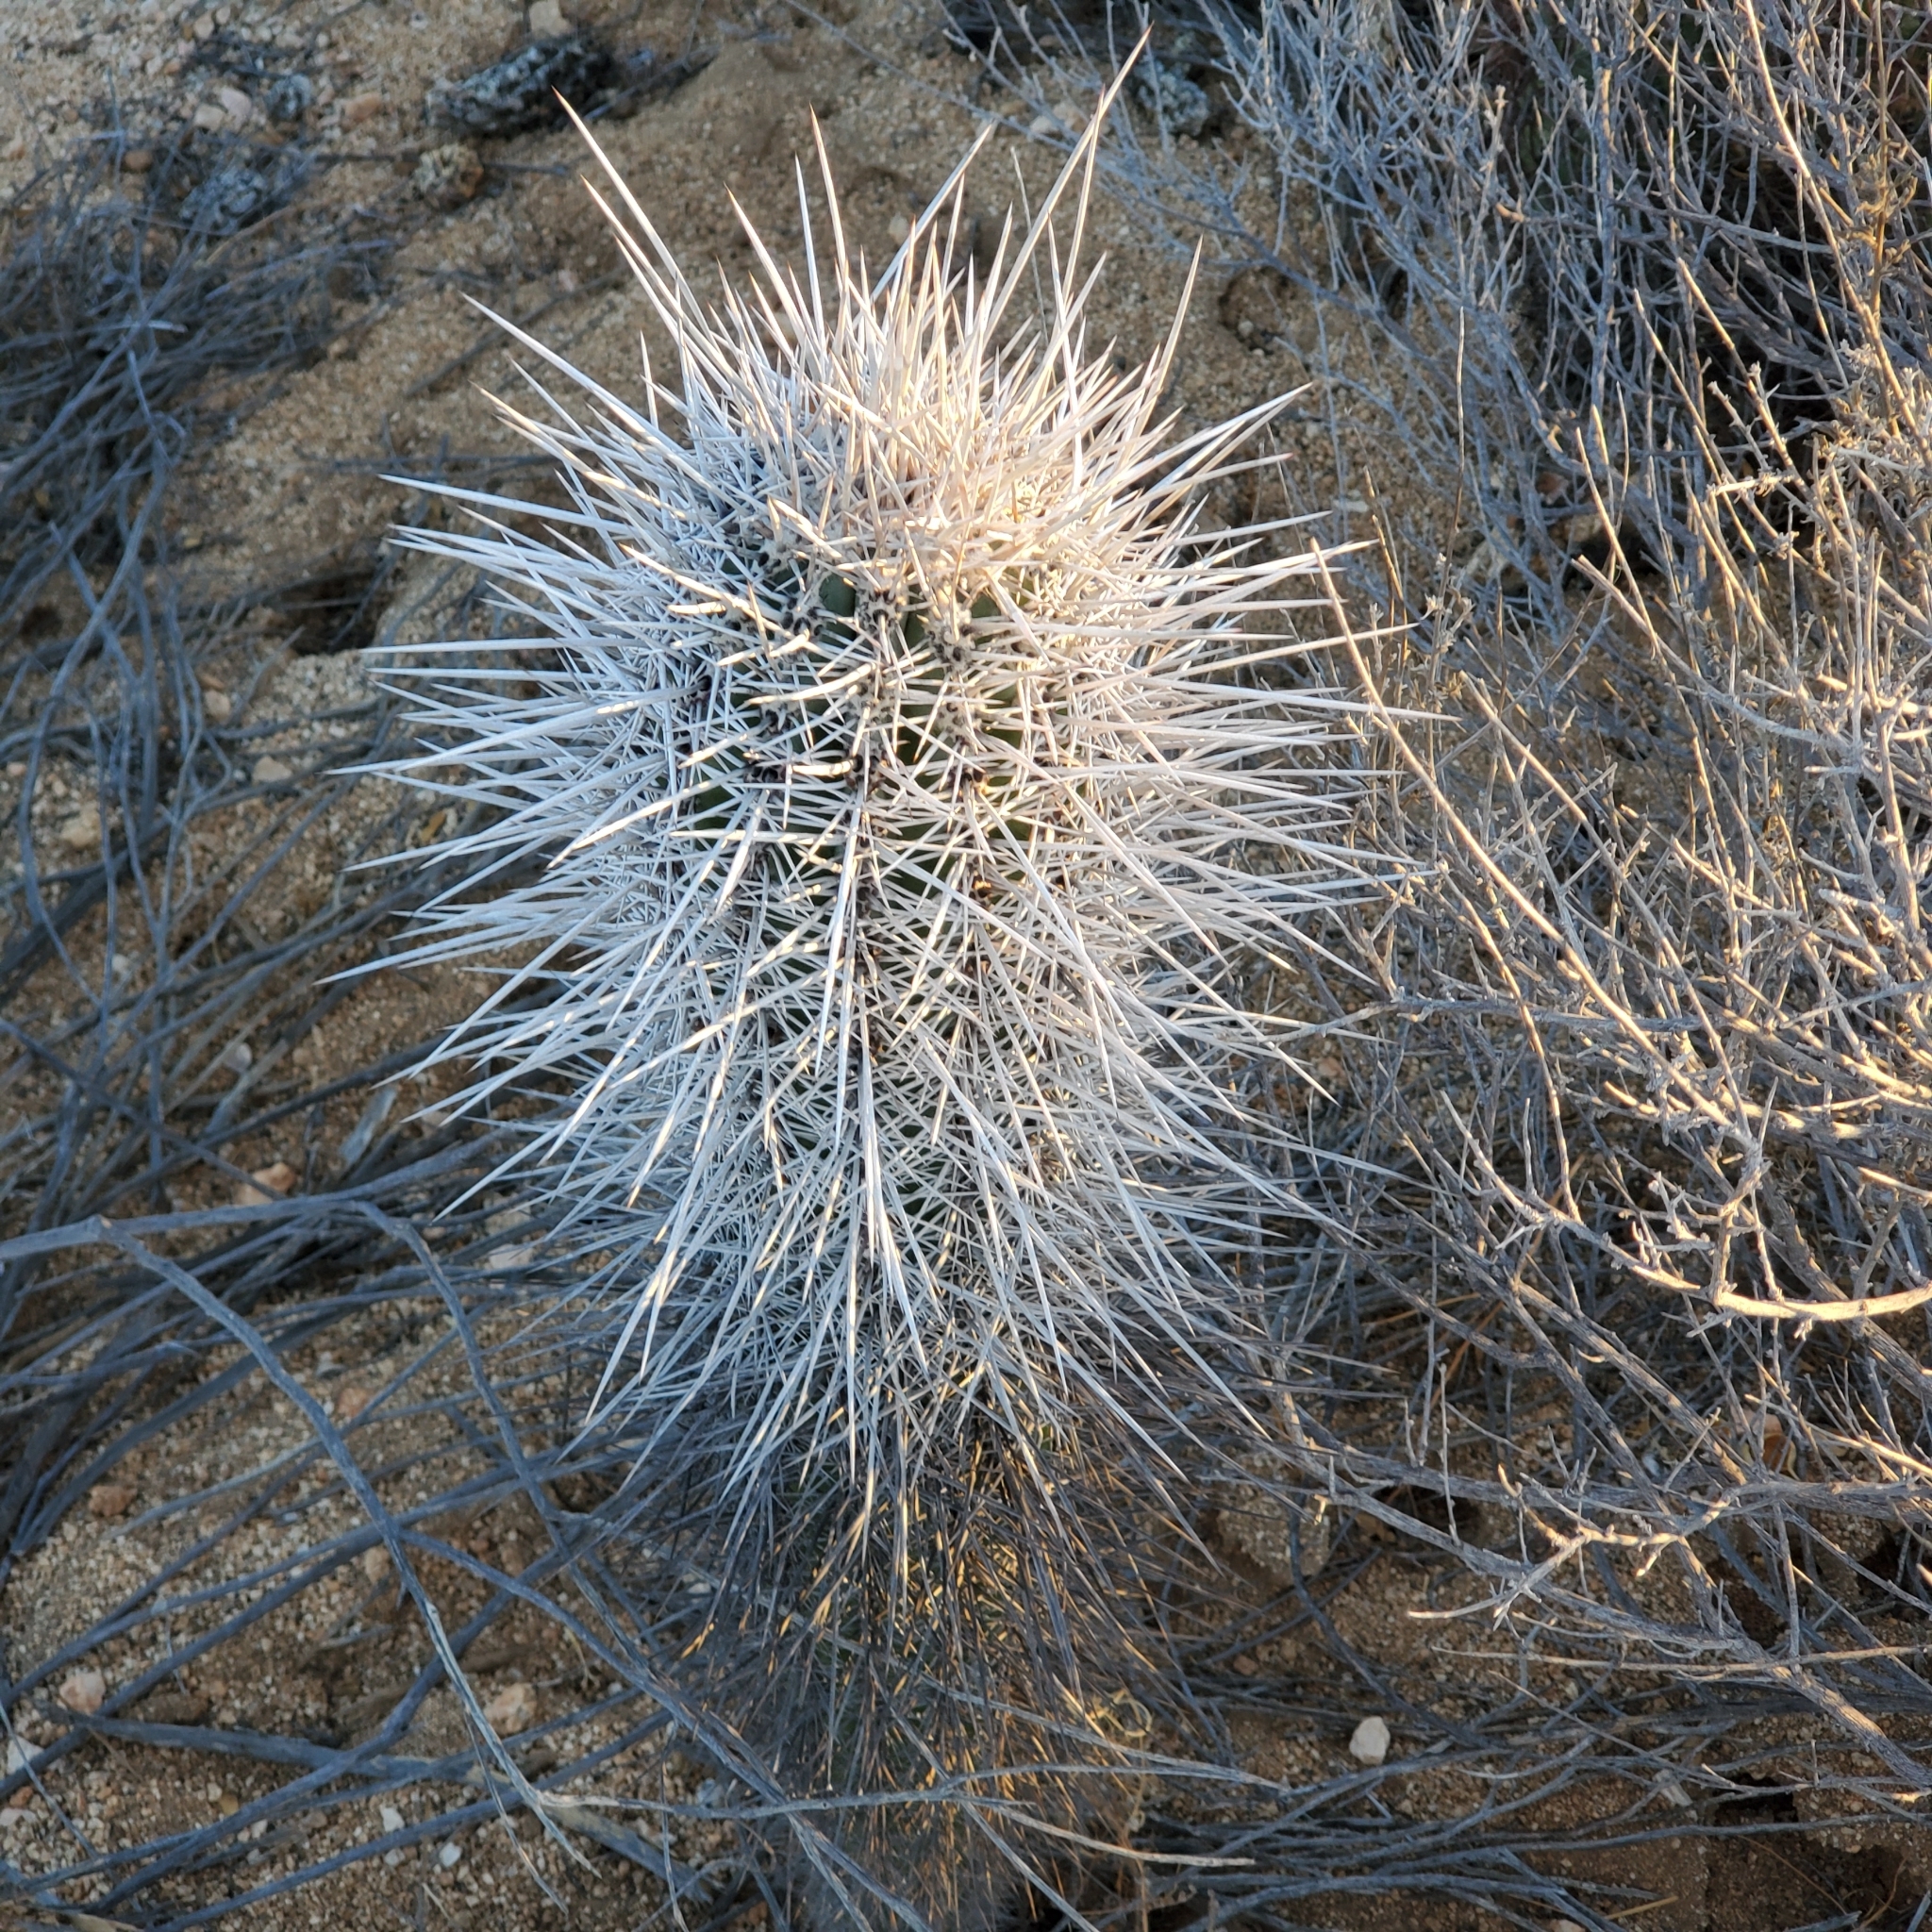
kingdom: Plantae
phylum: Tracheophyta
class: Magnoliopsida
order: Caryophyllales
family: Cactaceae
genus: Pachycereus
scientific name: Pachycereus pringlei
